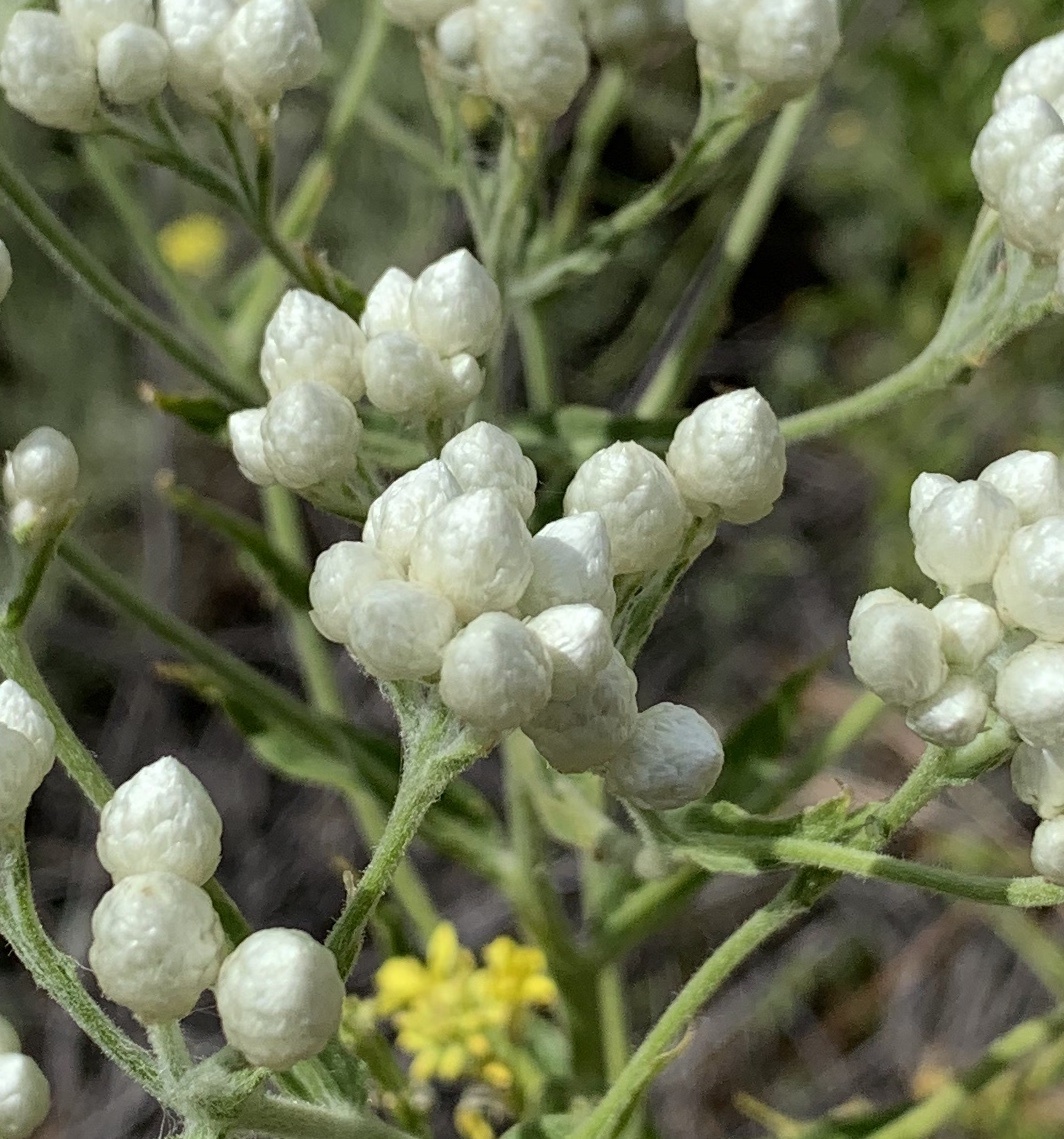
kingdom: Plantae
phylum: Tracheophyta
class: Magnoliopsida
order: Asterales
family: Asteraceae
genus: Pseudognaphalium
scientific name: Pseudognaphalium californicum
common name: California rabbit-tobacco
